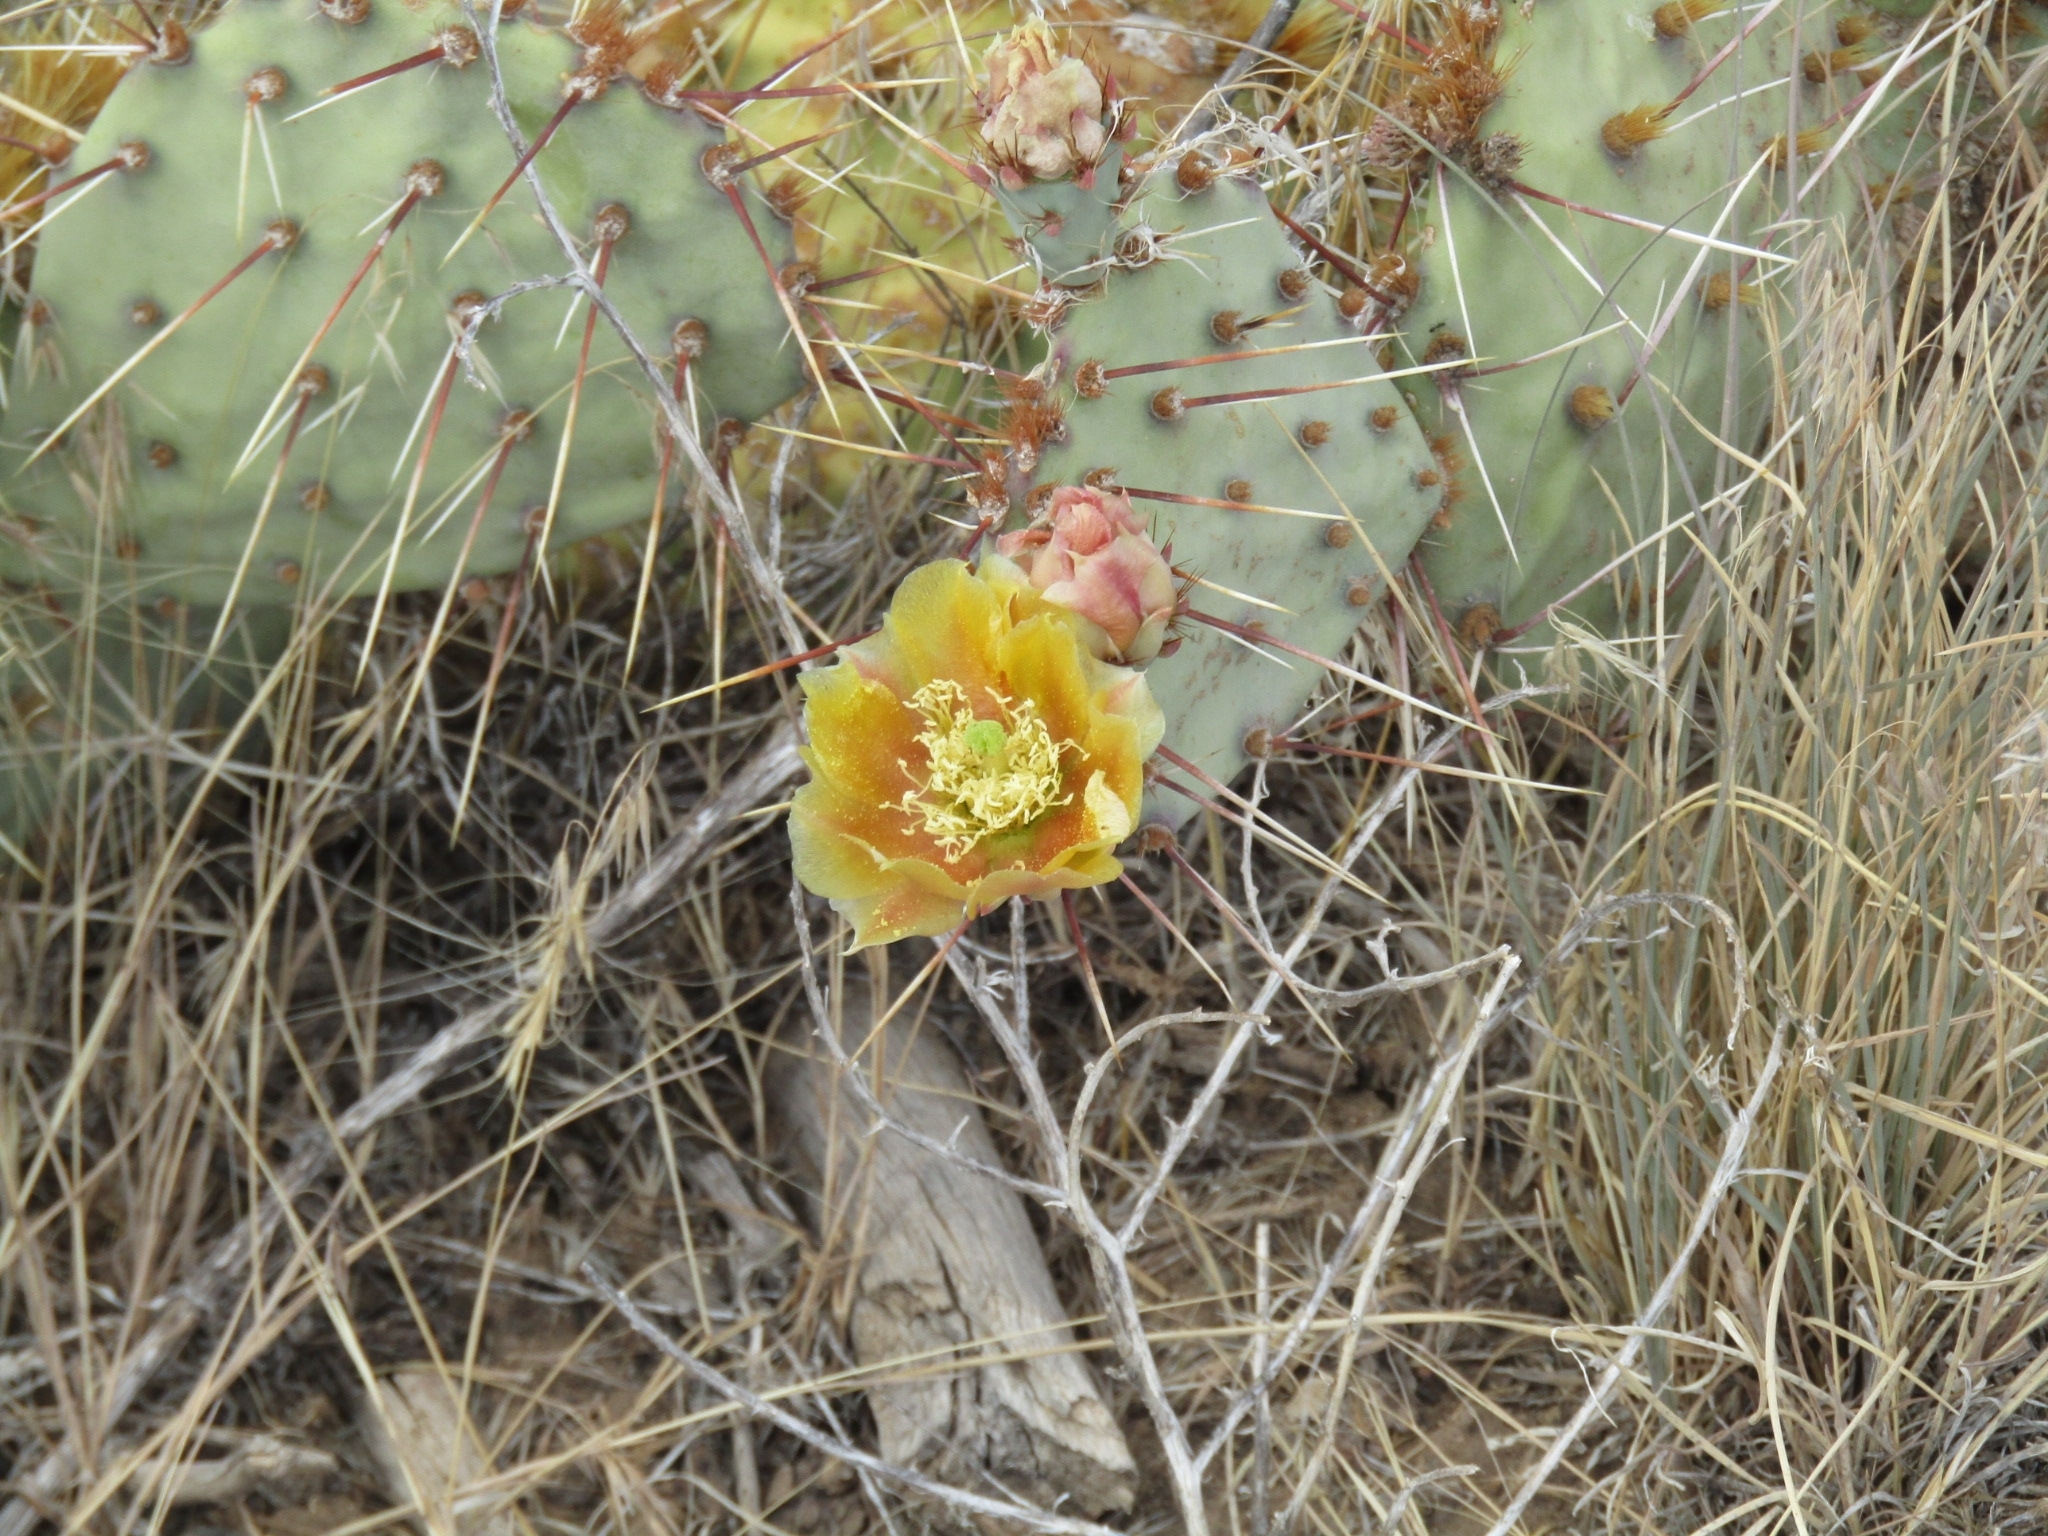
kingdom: Plantae
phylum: Tracheophyta
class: Magnoliopsida
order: Caryophyllales
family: Cactaceae
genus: Opuntia
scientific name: Opuntia phaeacantha
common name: New mexico prickly-pear
